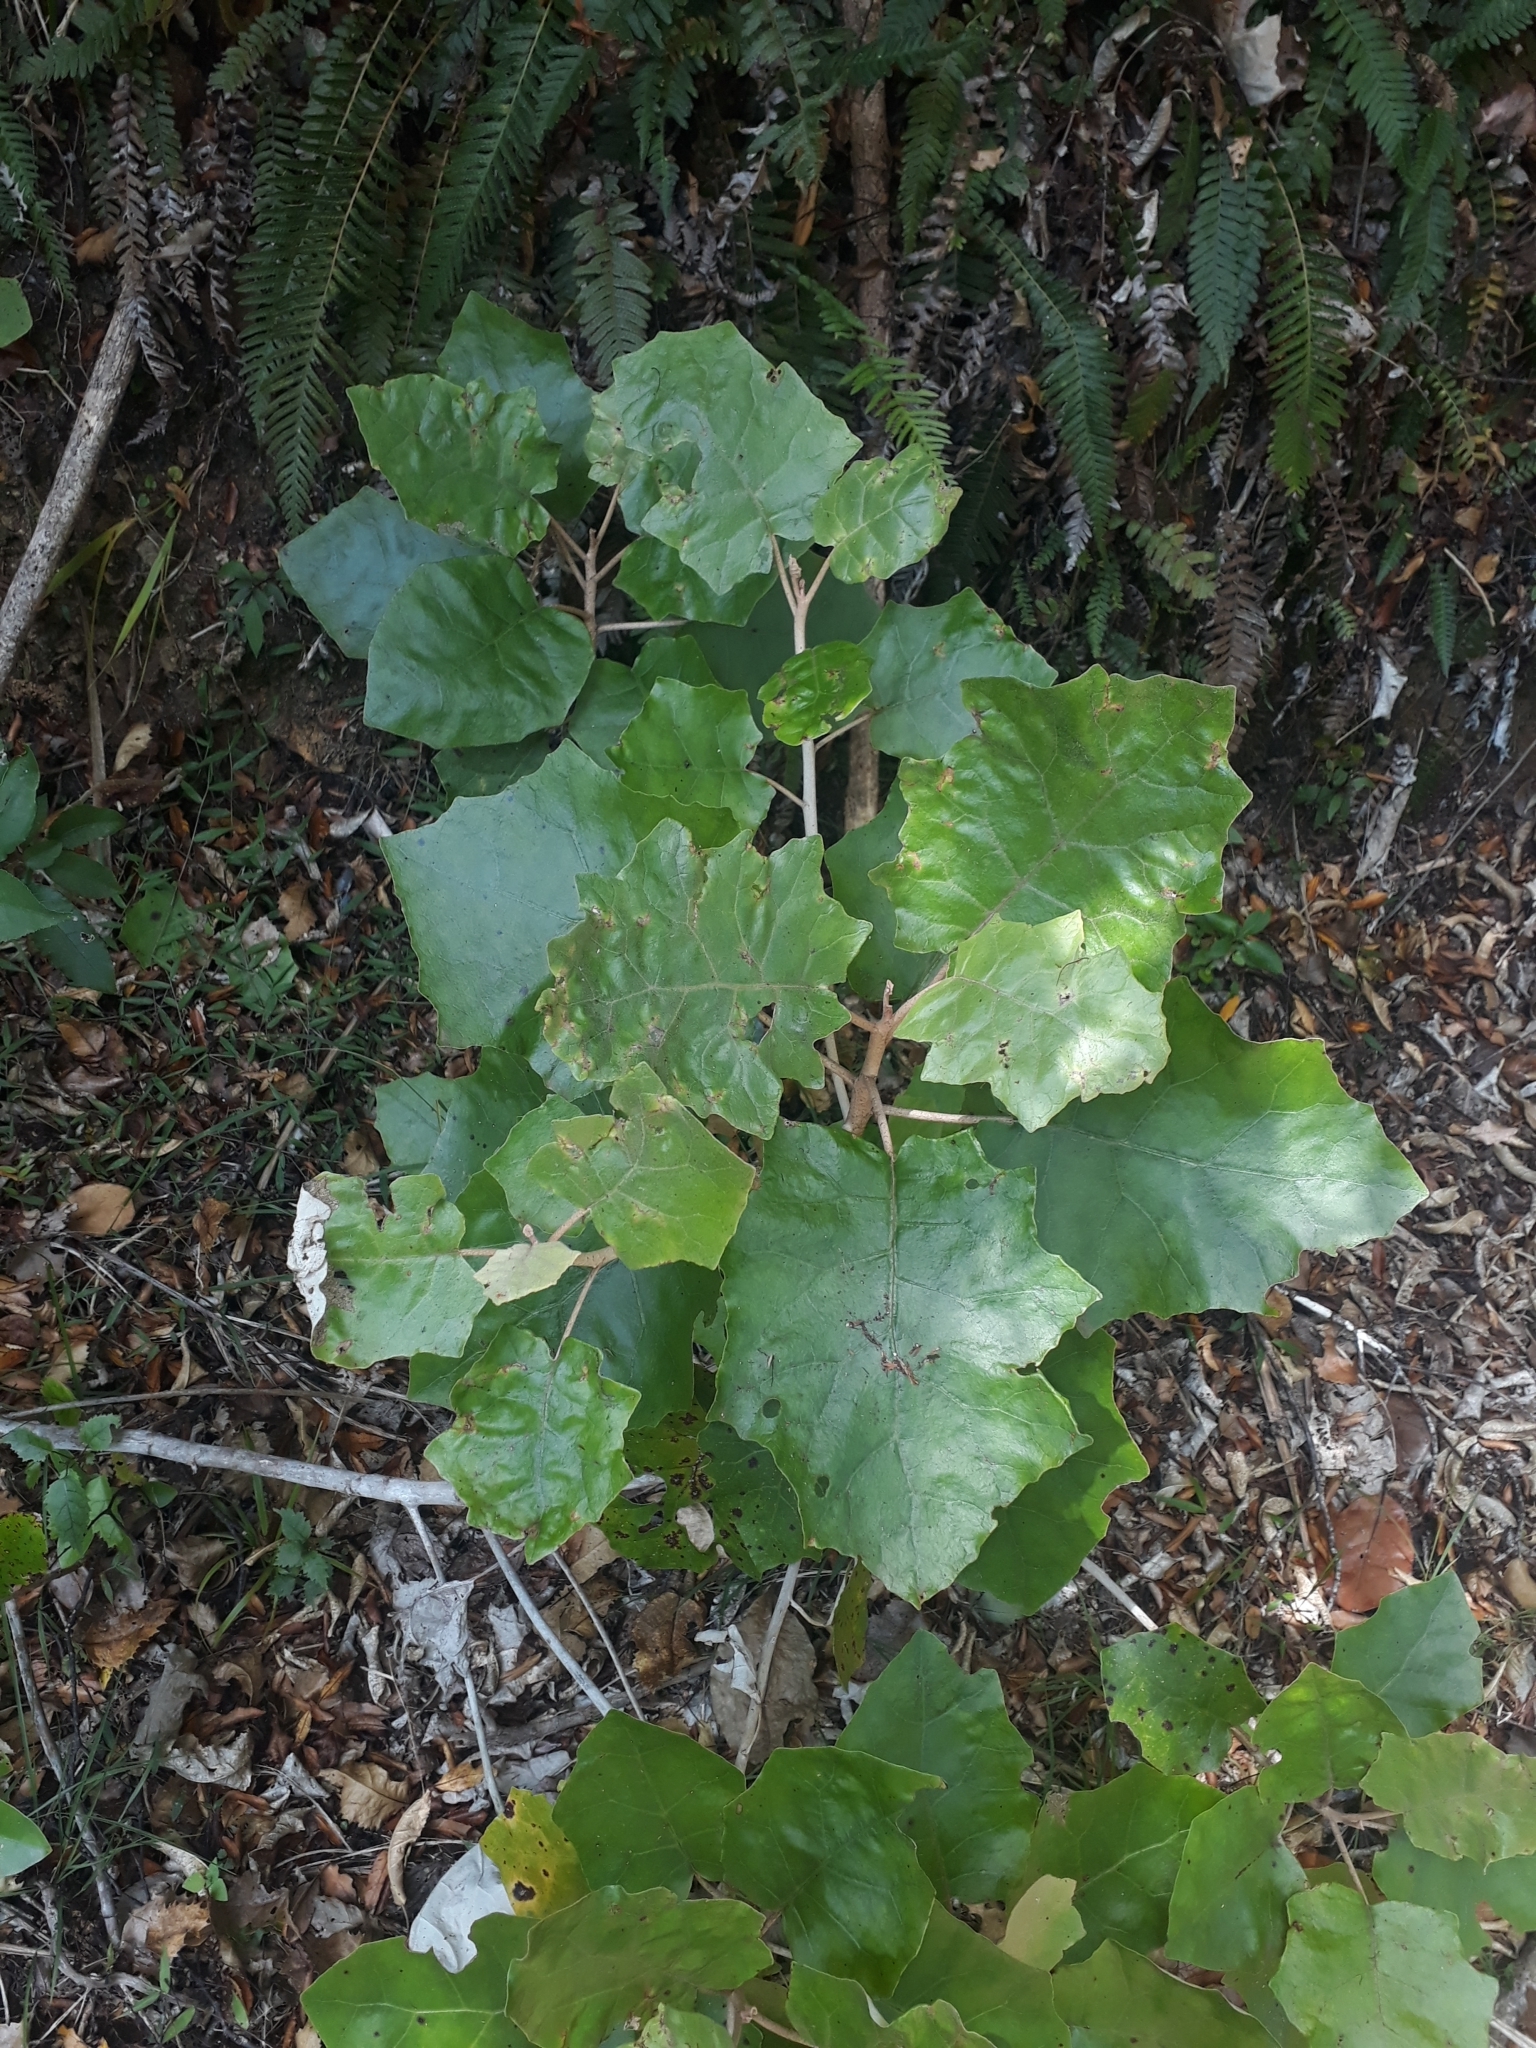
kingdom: Plantae
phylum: Tracheophyta
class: Magnoliopsida
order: Asterales
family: Asteraceae
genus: Brachyglottis
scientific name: Brachyglottis repanda
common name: Hedge ragwort
